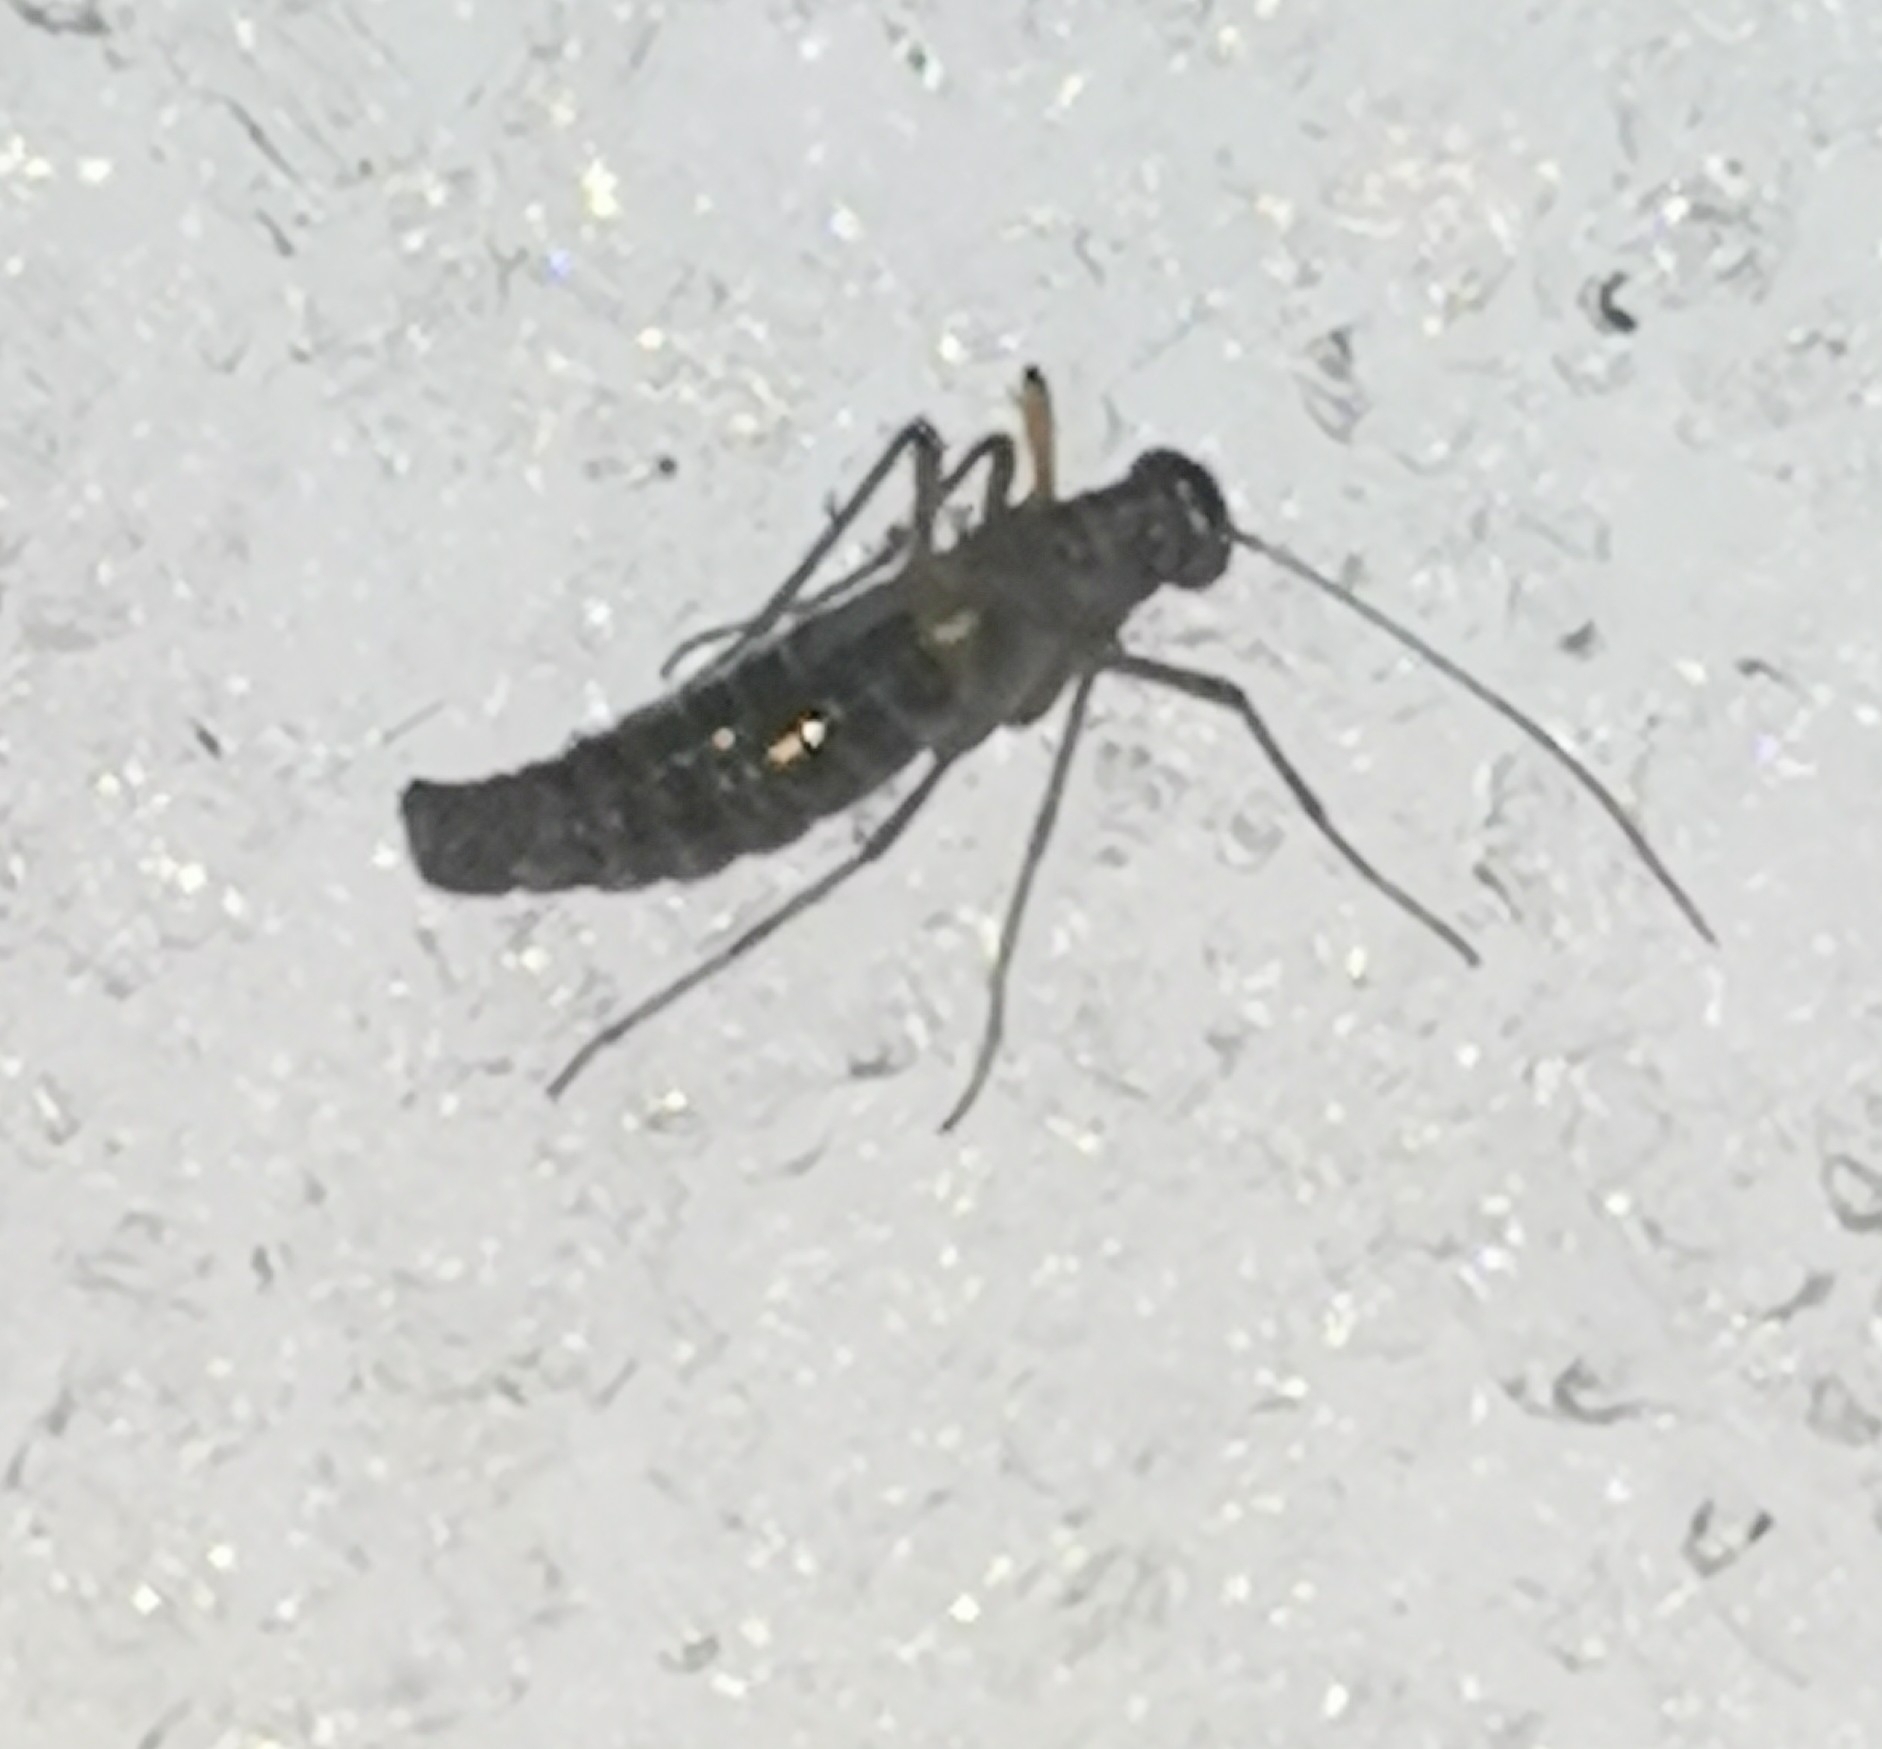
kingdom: Animalia
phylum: Arthropoda
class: Insecta
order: Mecoptera
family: Boreidae
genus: Boreus
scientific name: Boreus westwoodi
